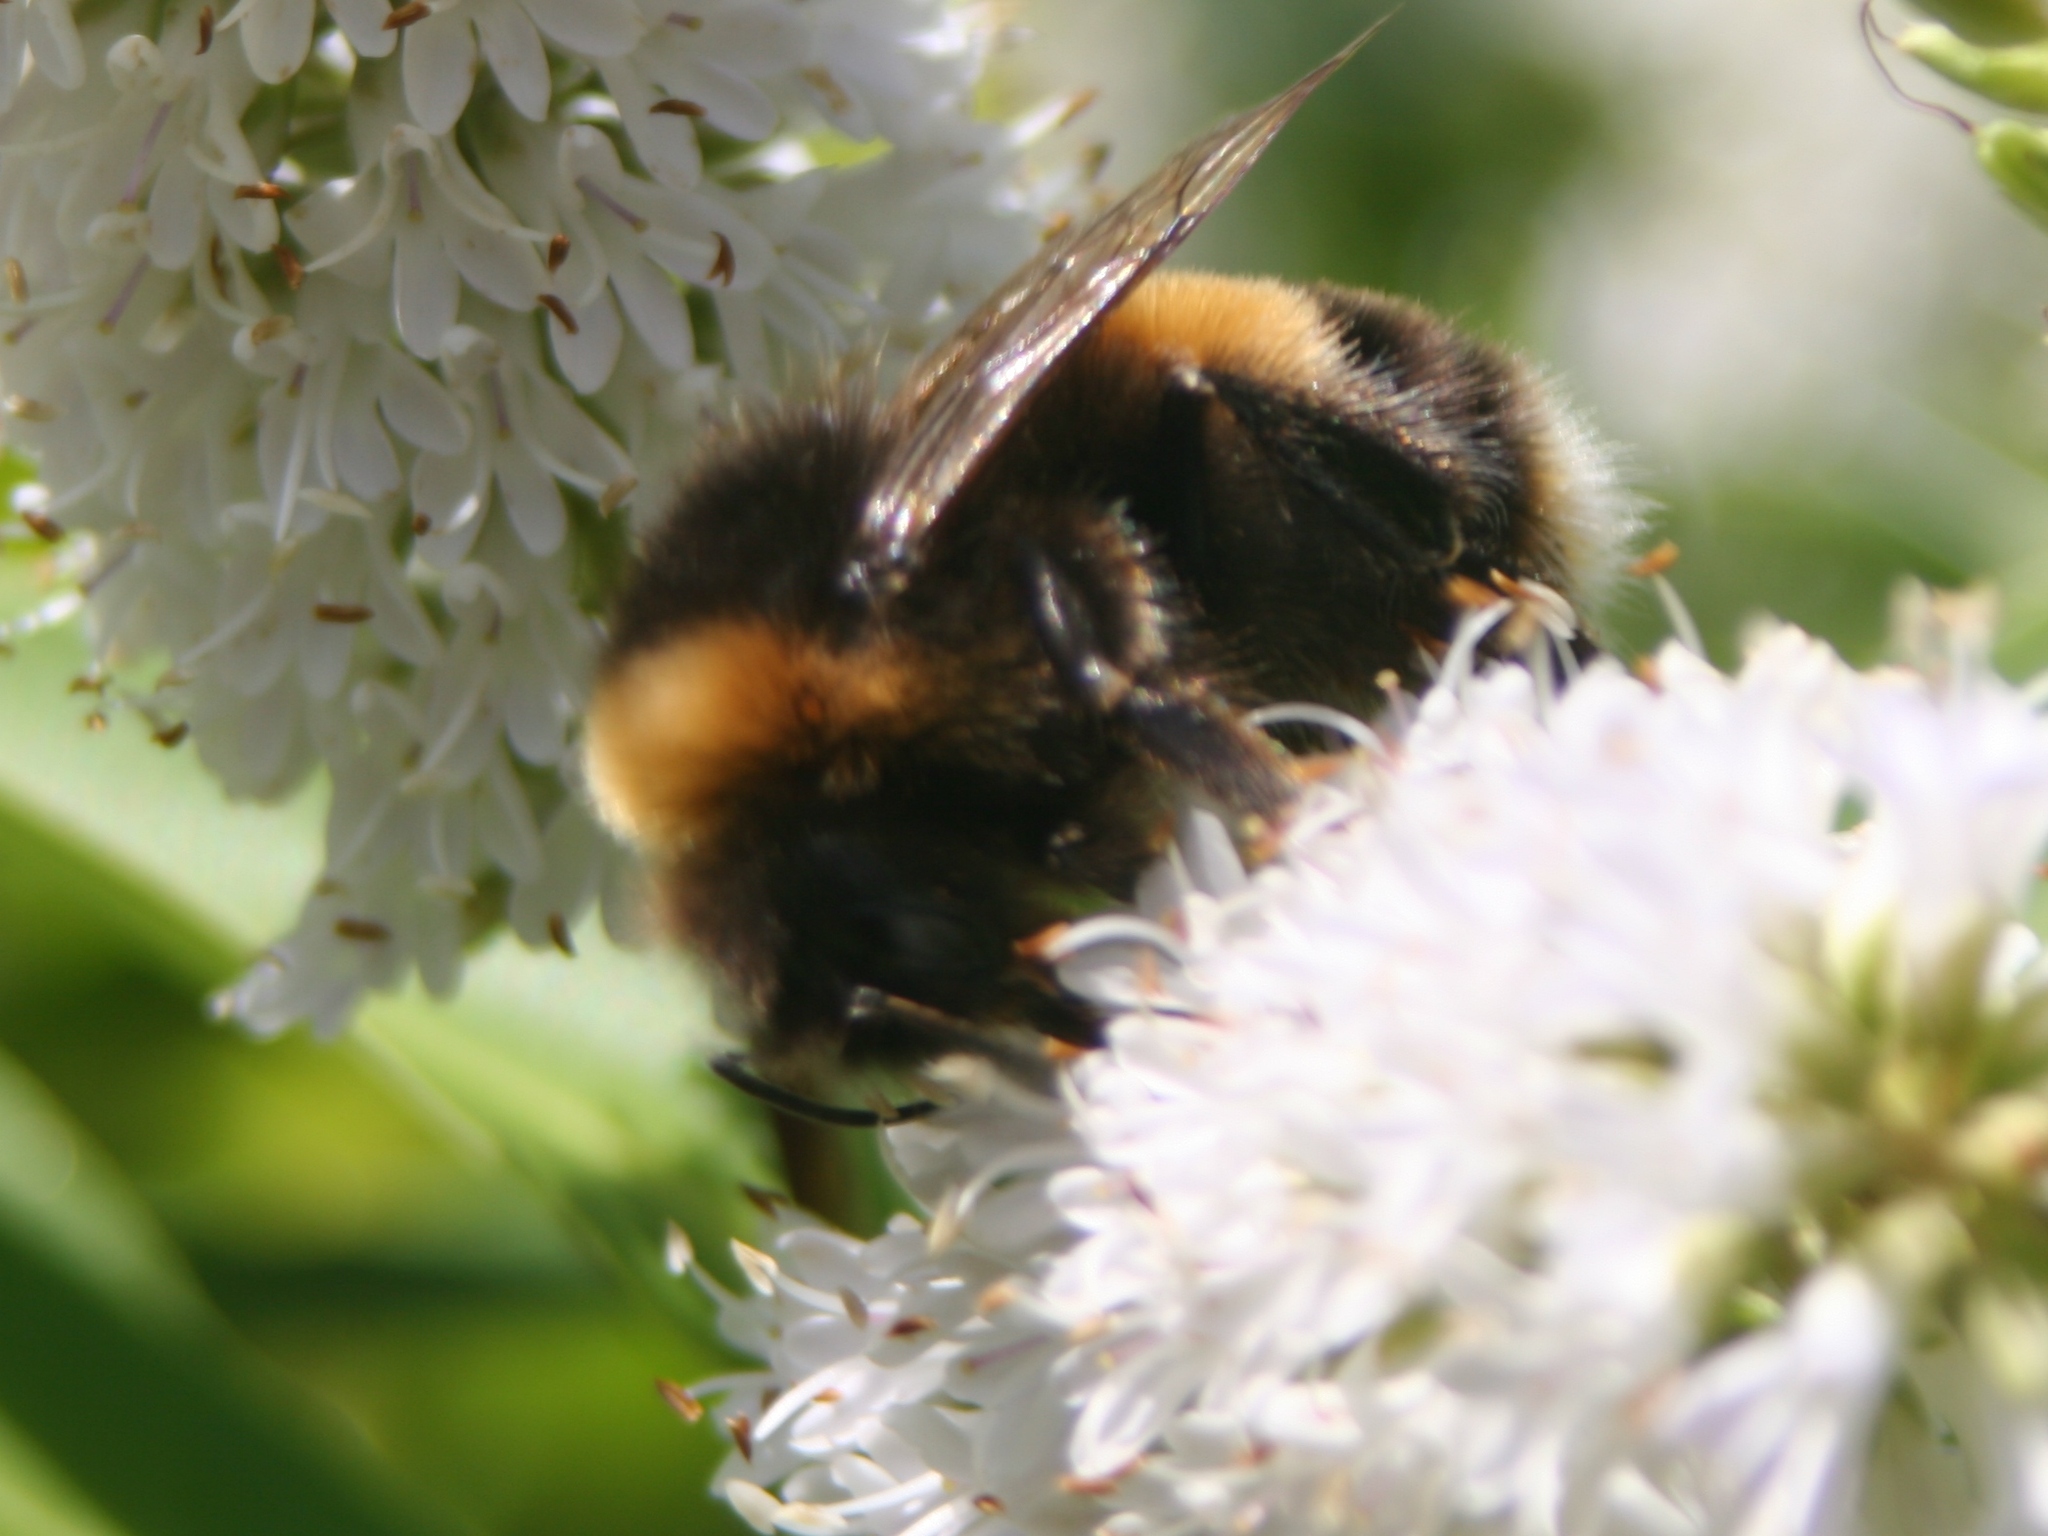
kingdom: Animalia
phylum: Arthropoda
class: Insecta
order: Hymenoptera
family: Apidae
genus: Bombus
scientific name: Bombus terrestris
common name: Buff-tailed bumblebee
